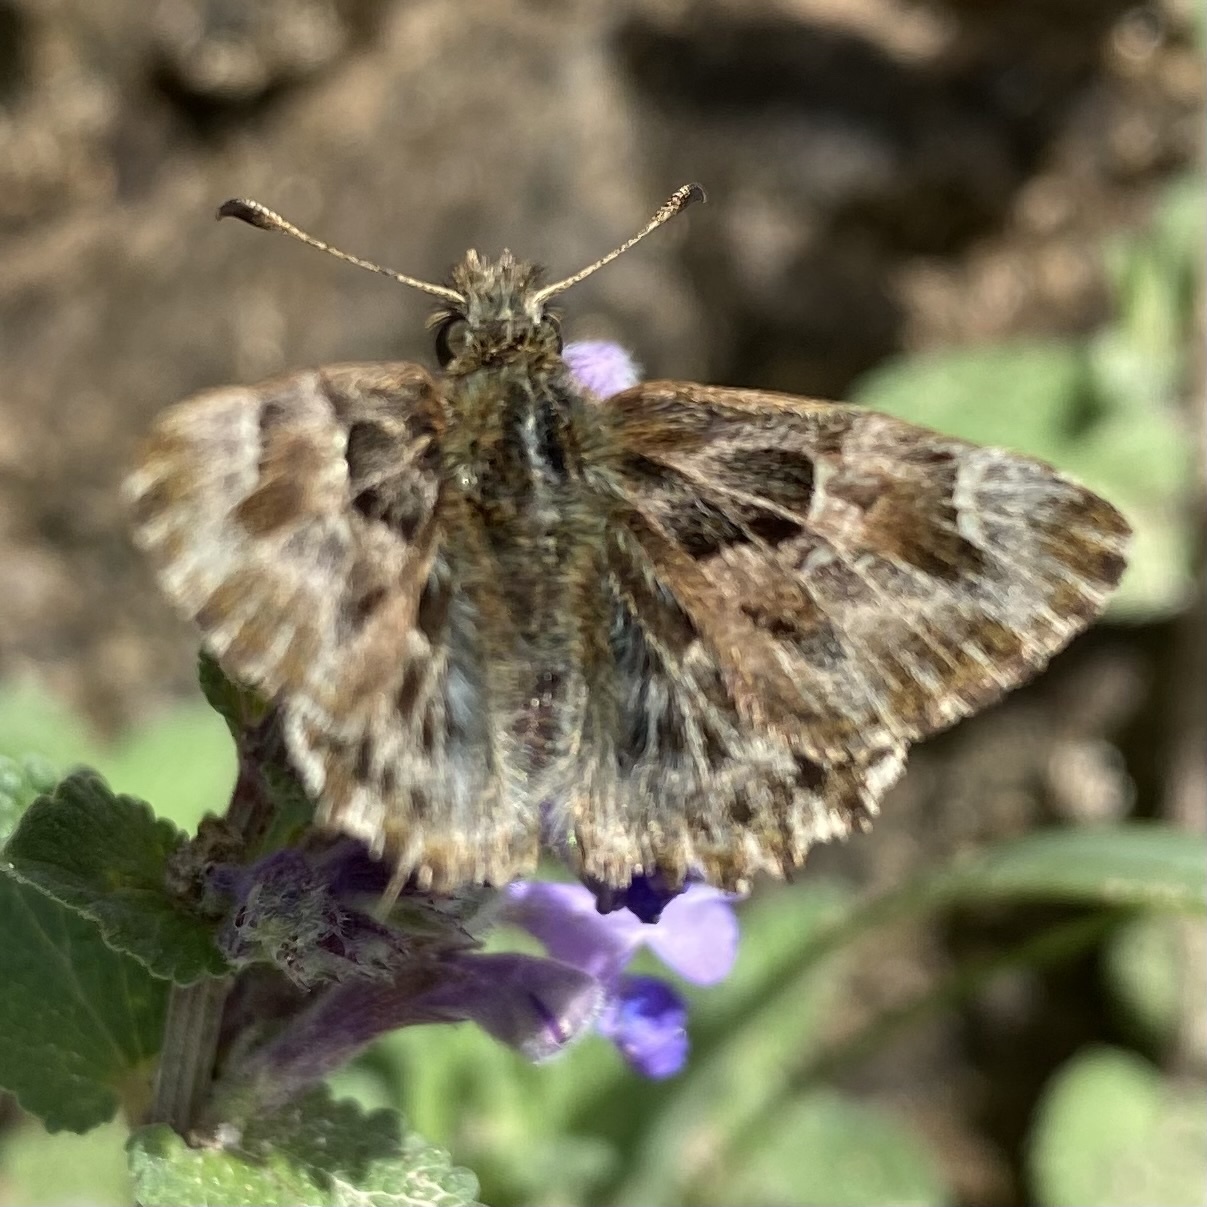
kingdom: Animalia
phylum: Arthropoda
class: Insecta
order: Lepidoptera
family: Hesperiidae
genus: Carcharodus
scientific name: Carcharodus alceae
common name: Mallow skipper
